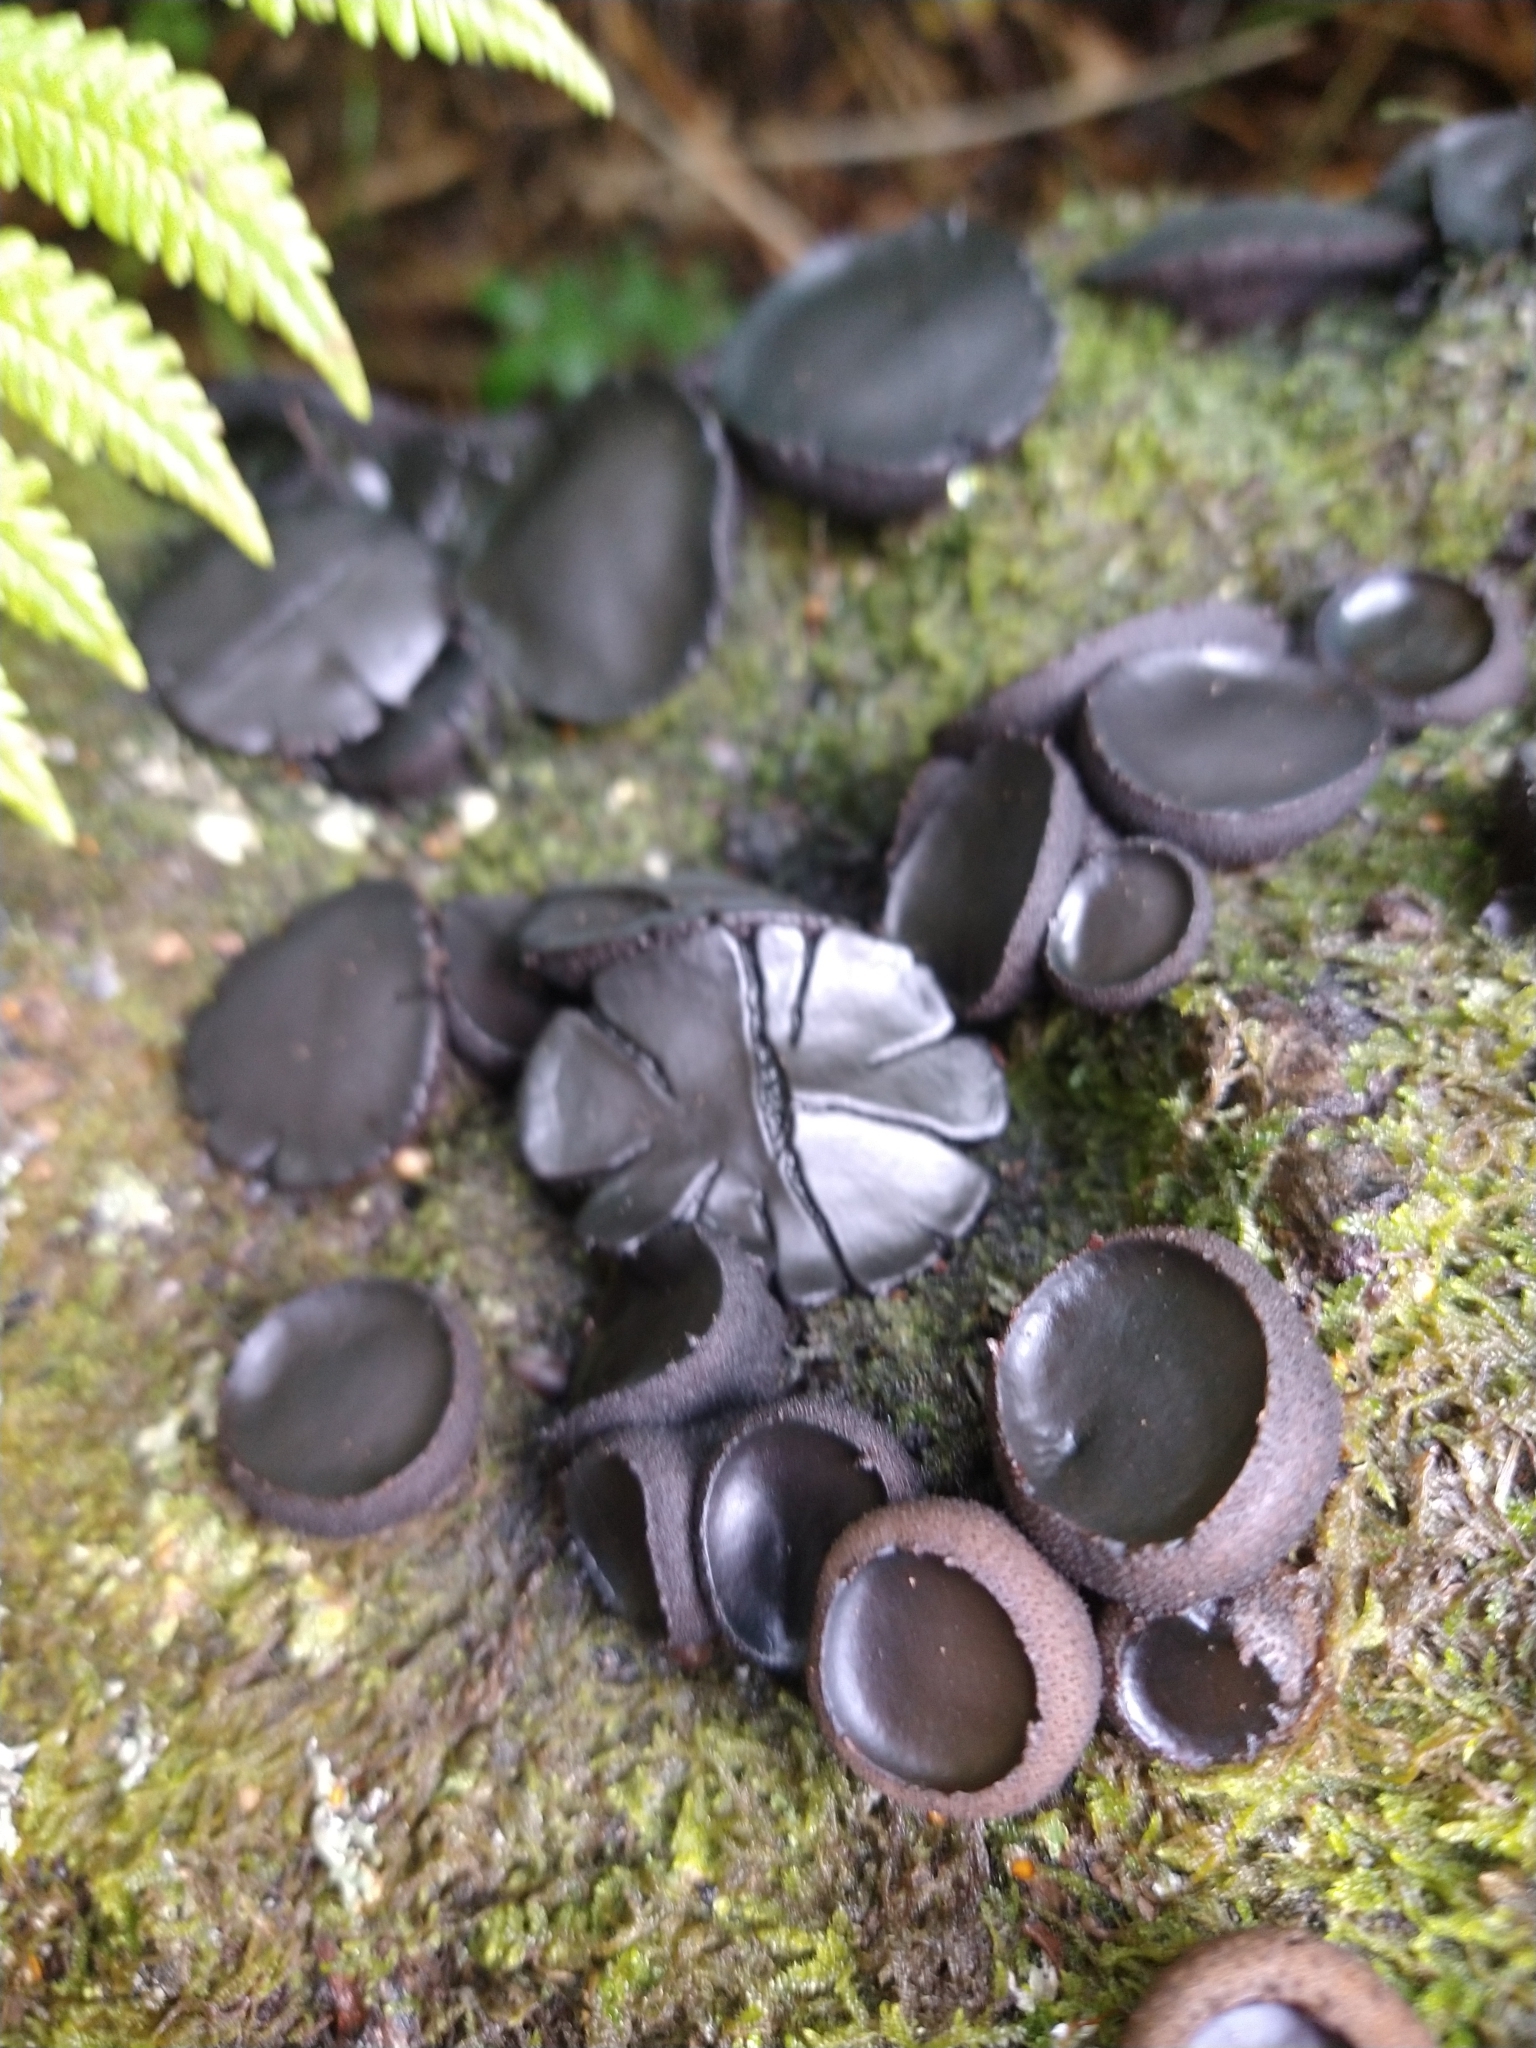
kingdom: Fungi
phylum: Ascomycota
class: Leotiomycetes
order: Phacidiales
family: Phacidiaceae
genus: Bulgaria
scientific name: Bulgaria inquinans
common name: Black bulgar
